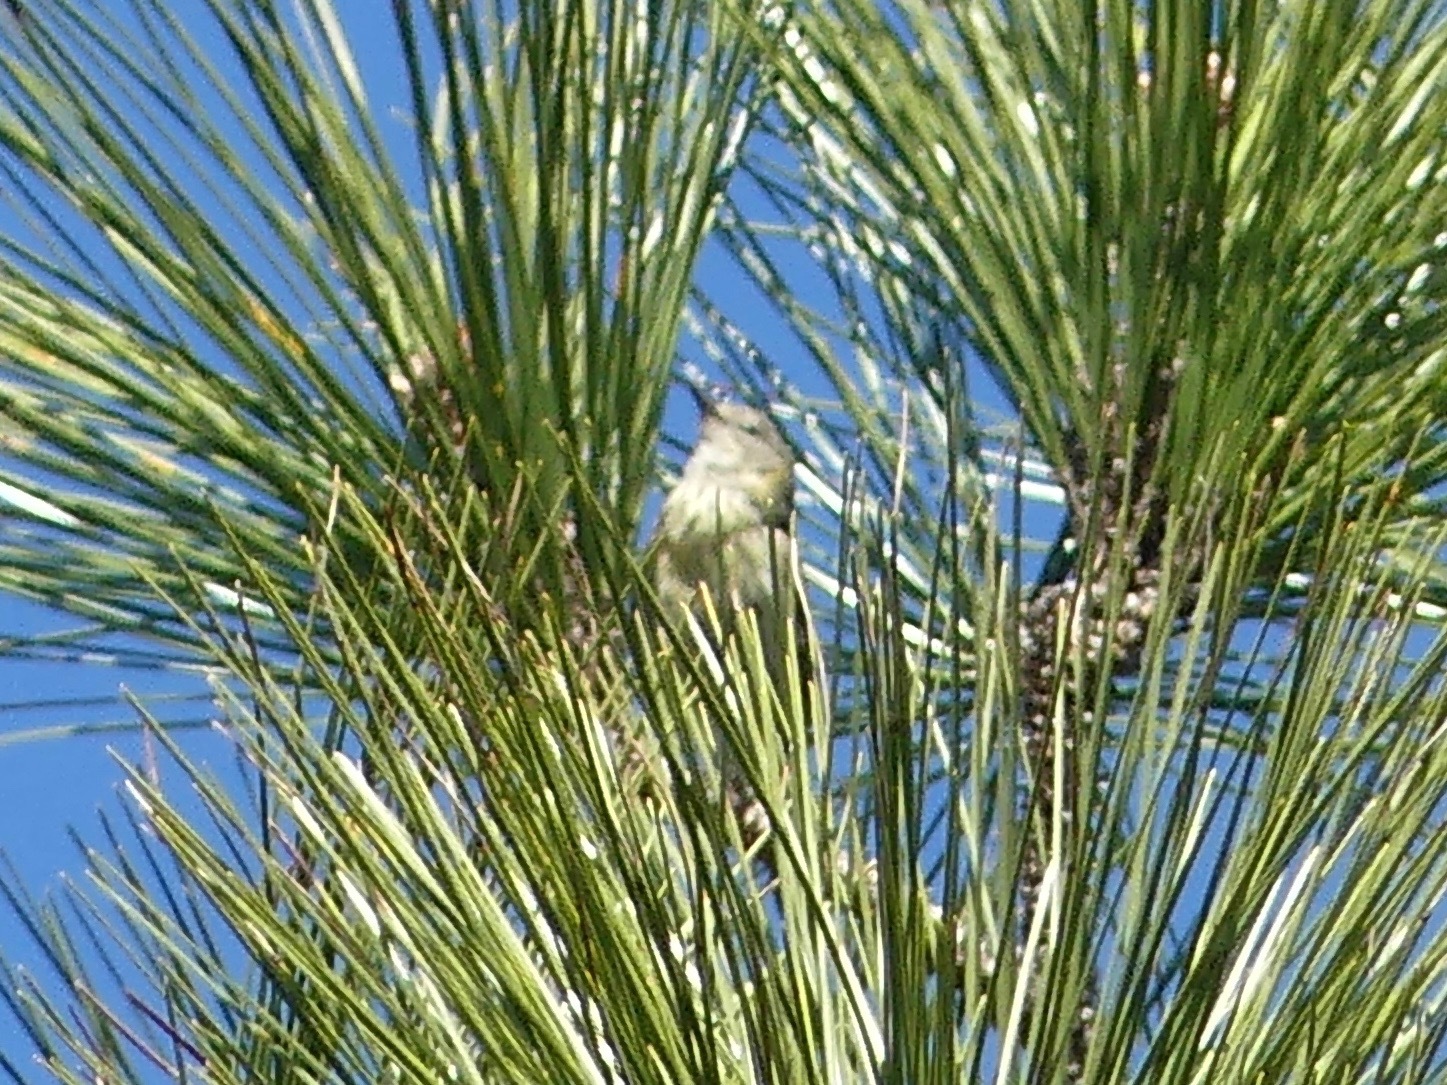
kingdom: Animalia
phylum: Chordata
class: Aves
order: Passeriformes
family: Parulidae
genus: Setophaga
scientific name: Setophaga tigrina
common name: Cape may warbler
